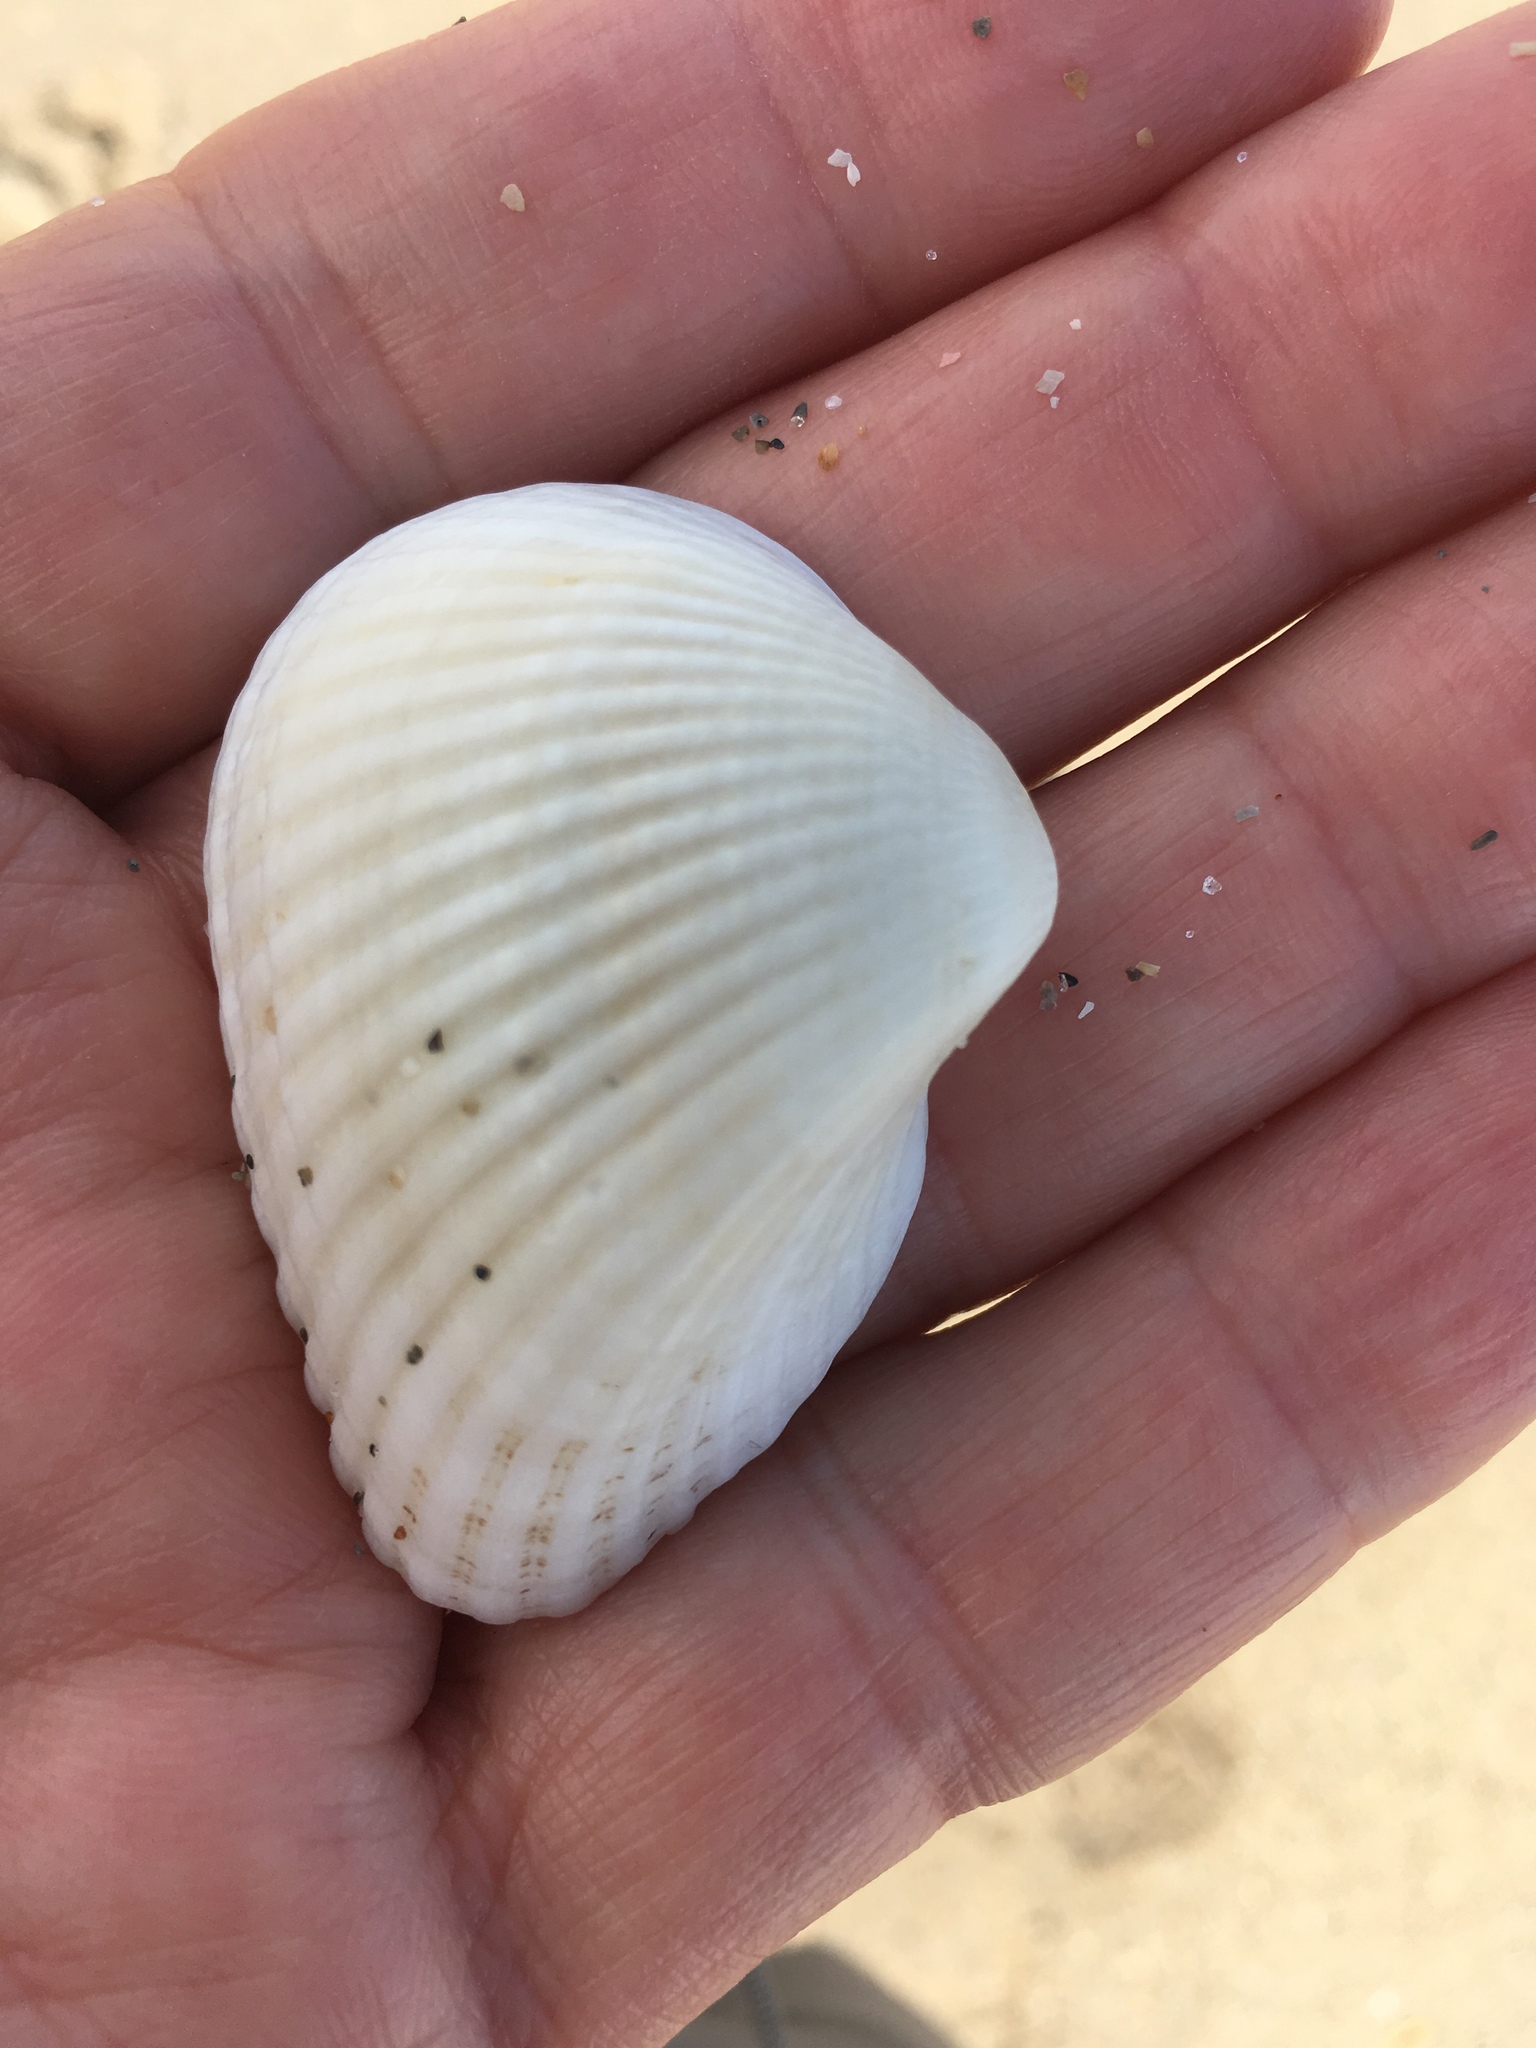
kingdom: Animalia
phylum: Mollusca
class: Bivalvia
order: Arcida
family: Noetiidae
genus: Noetia
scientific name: Noetia ponderosa
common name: Ponderous ark
